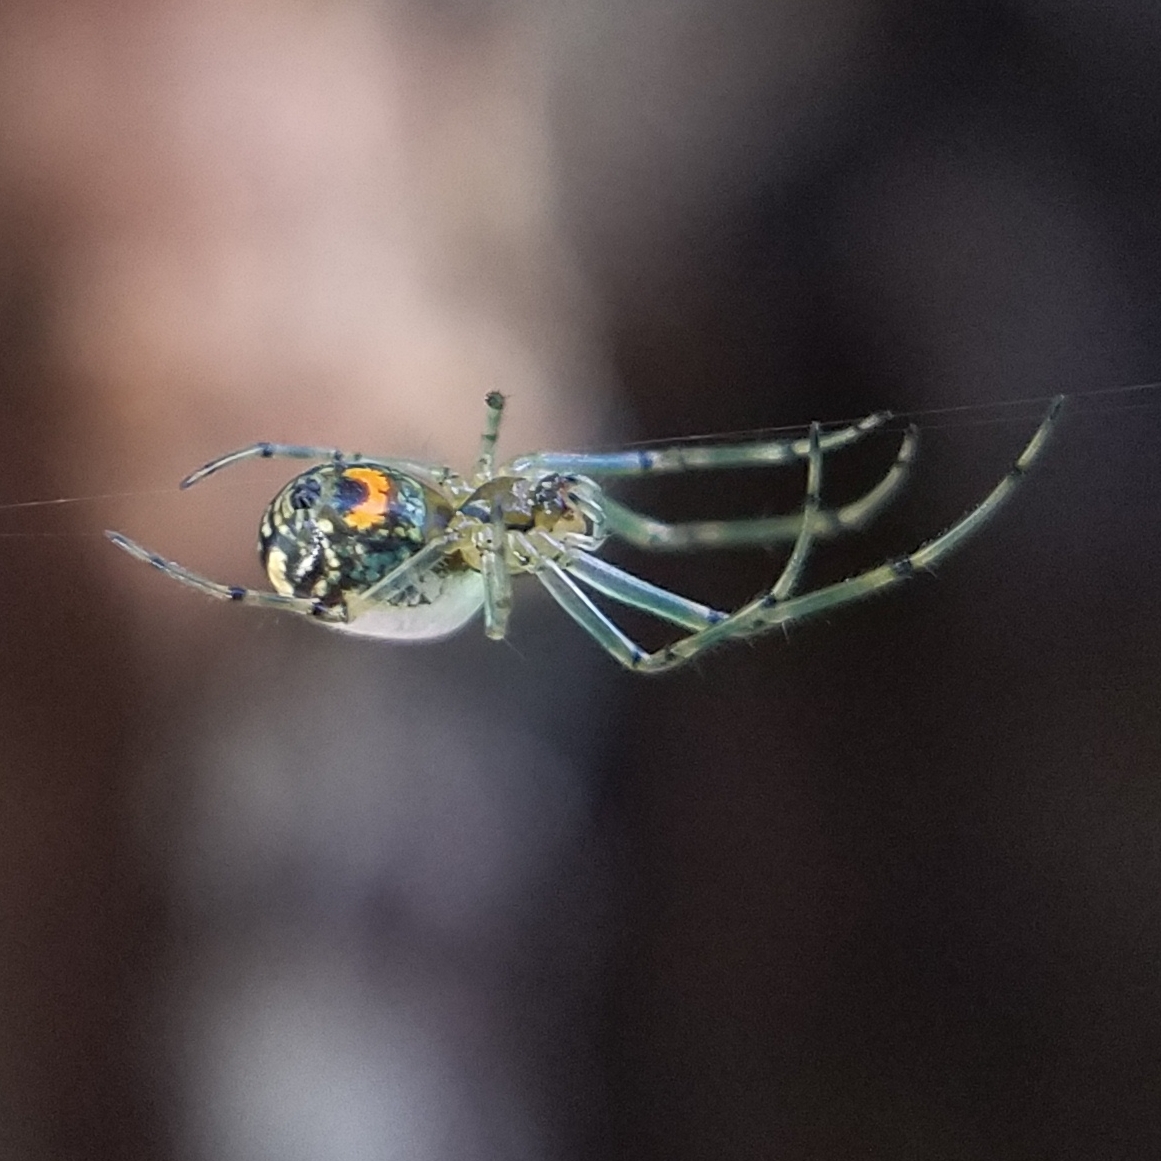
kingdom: Animalia
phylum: Arthropoda
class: Arachnida
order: Araneae
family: Tetragnathidae
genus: Leucauge
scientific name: Leucauge venusta
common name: Longjawed orb weavers
